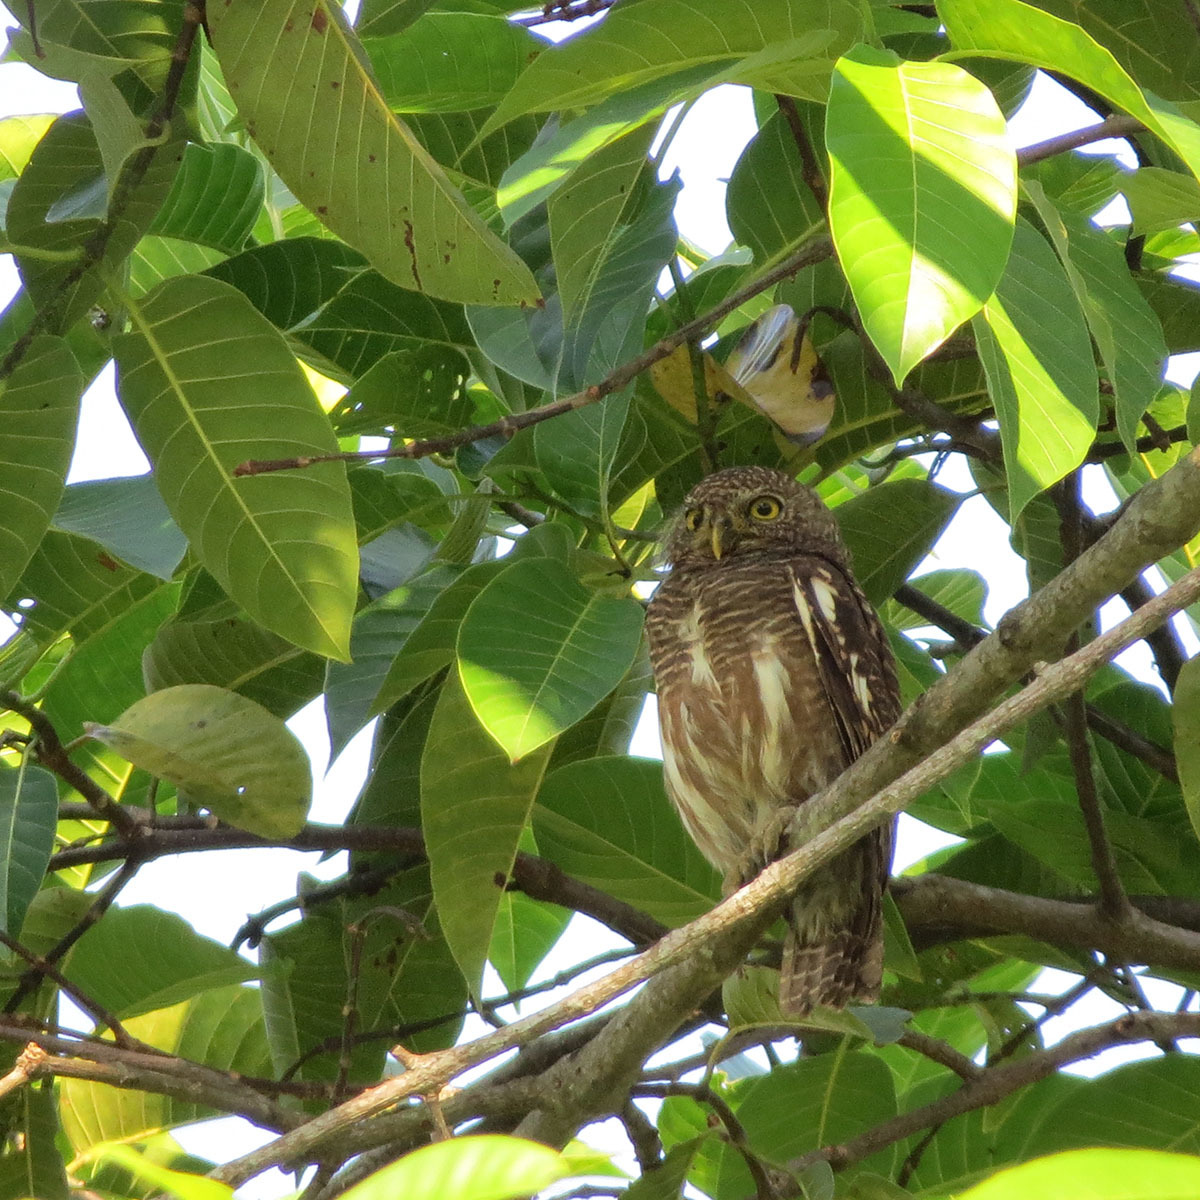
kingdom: Animalia
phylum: Chordata
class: Aves
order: Strigiformes
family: Strigidae
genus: Glaucidium
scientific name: Glaucidium cuculoides
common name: Asian barred owlet
